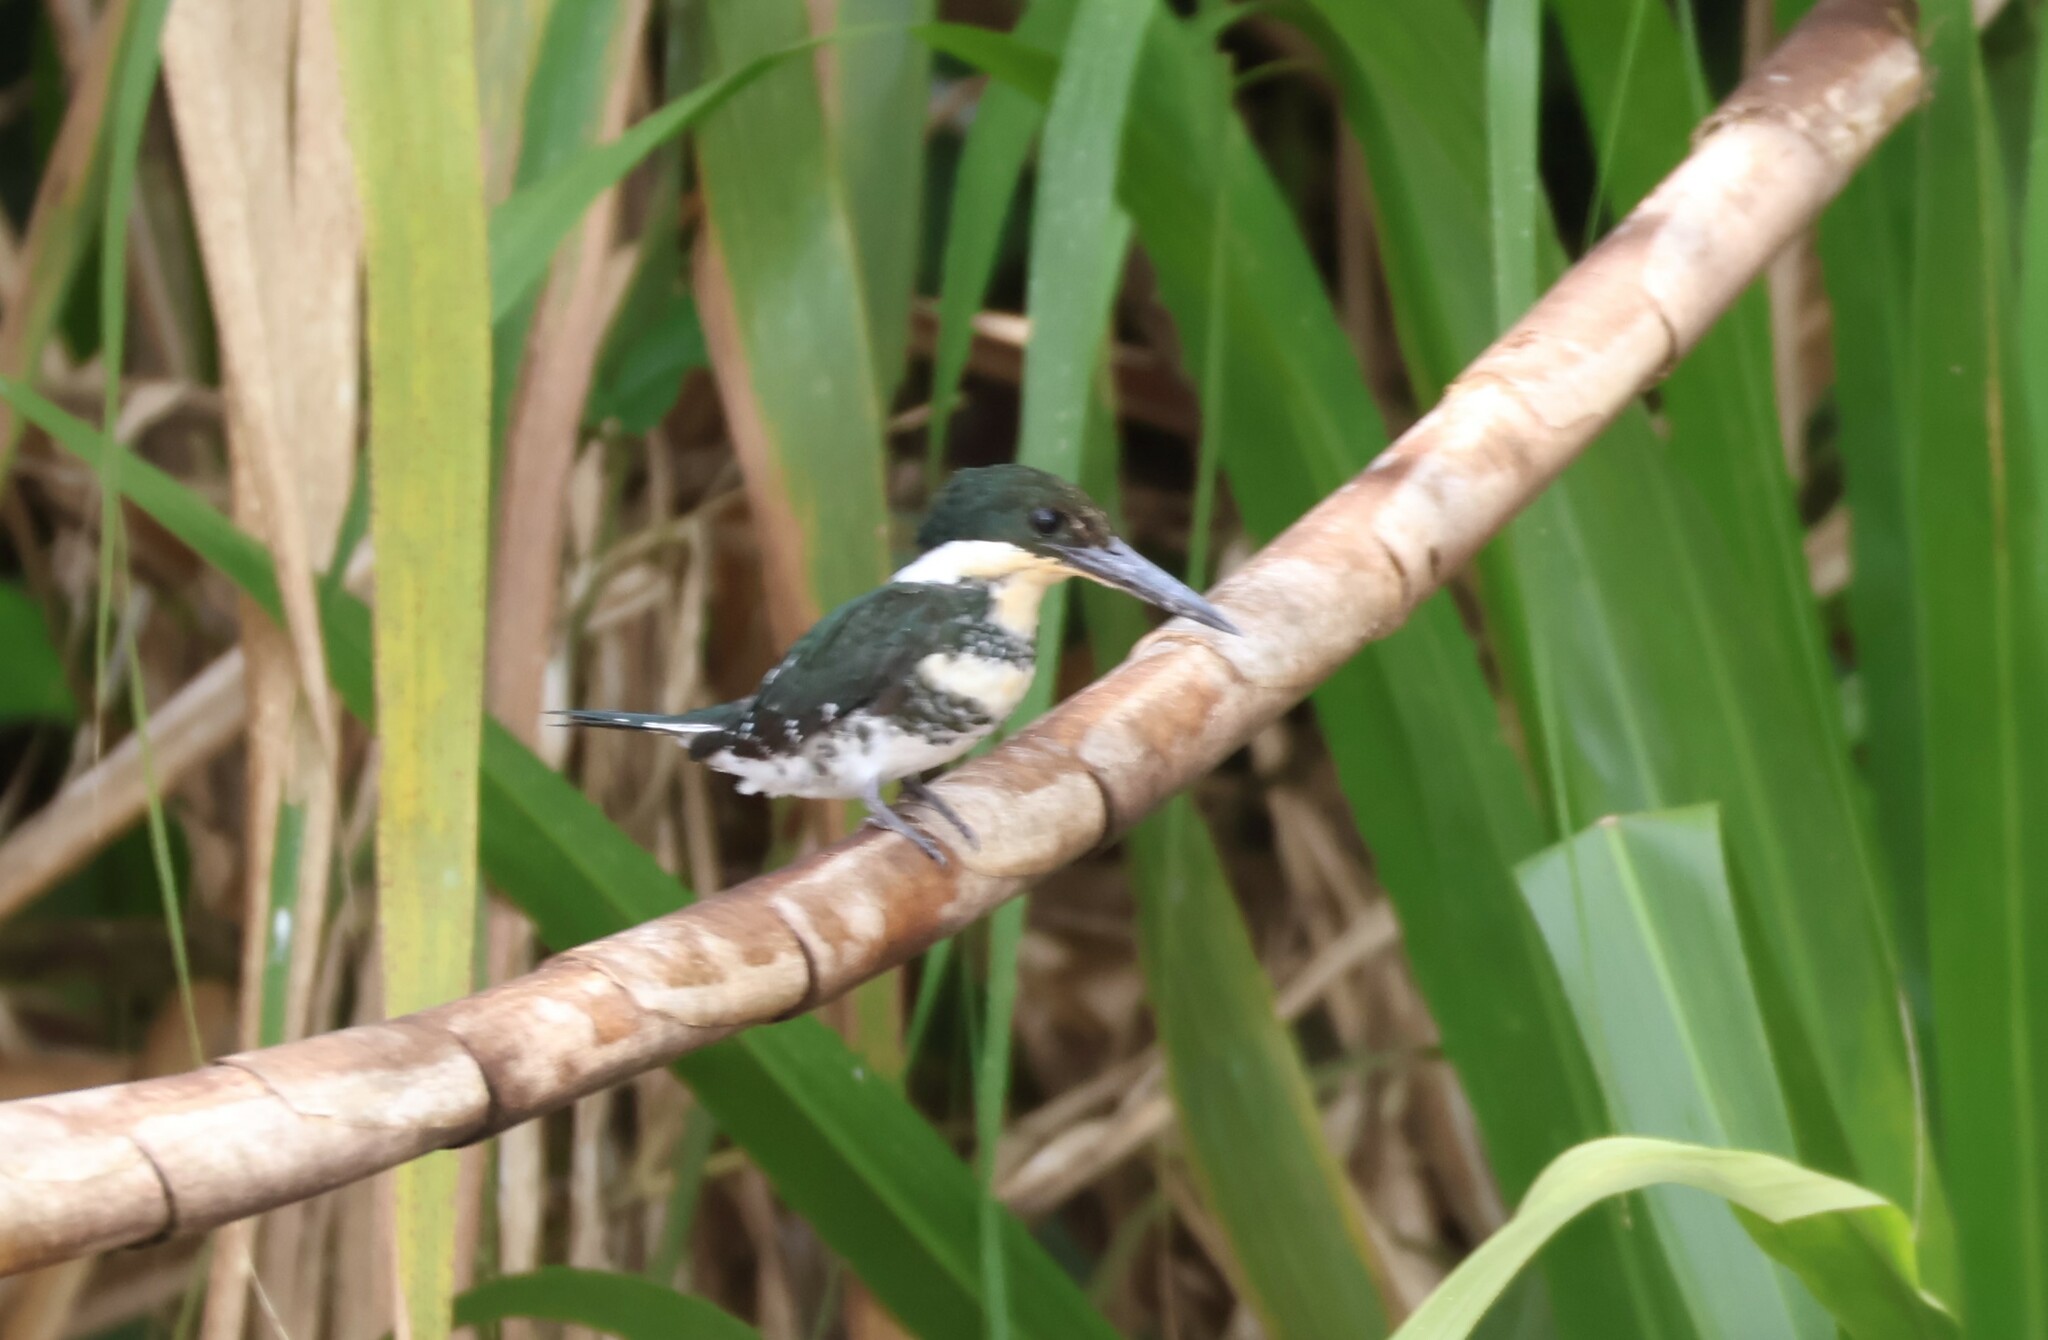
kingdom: Animalia
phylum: Chordata
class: Aves
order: Coraciiformes
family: Alcedinidae
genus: Chloroceryle
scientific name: Chloroceryle americana
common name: Green kingfisher
